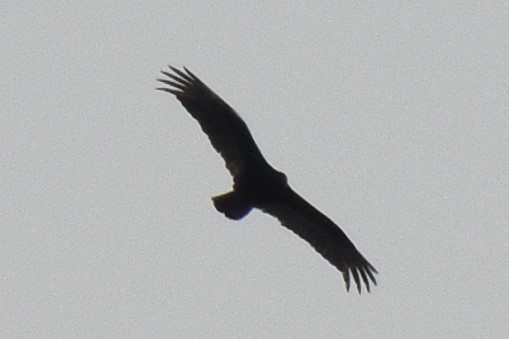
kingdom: Animalia
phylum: Chordata
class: Aves
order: Accipitriformes
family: Cathartidae
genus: Cathartes
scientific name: Cathartes aura
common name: Turkey vulture
